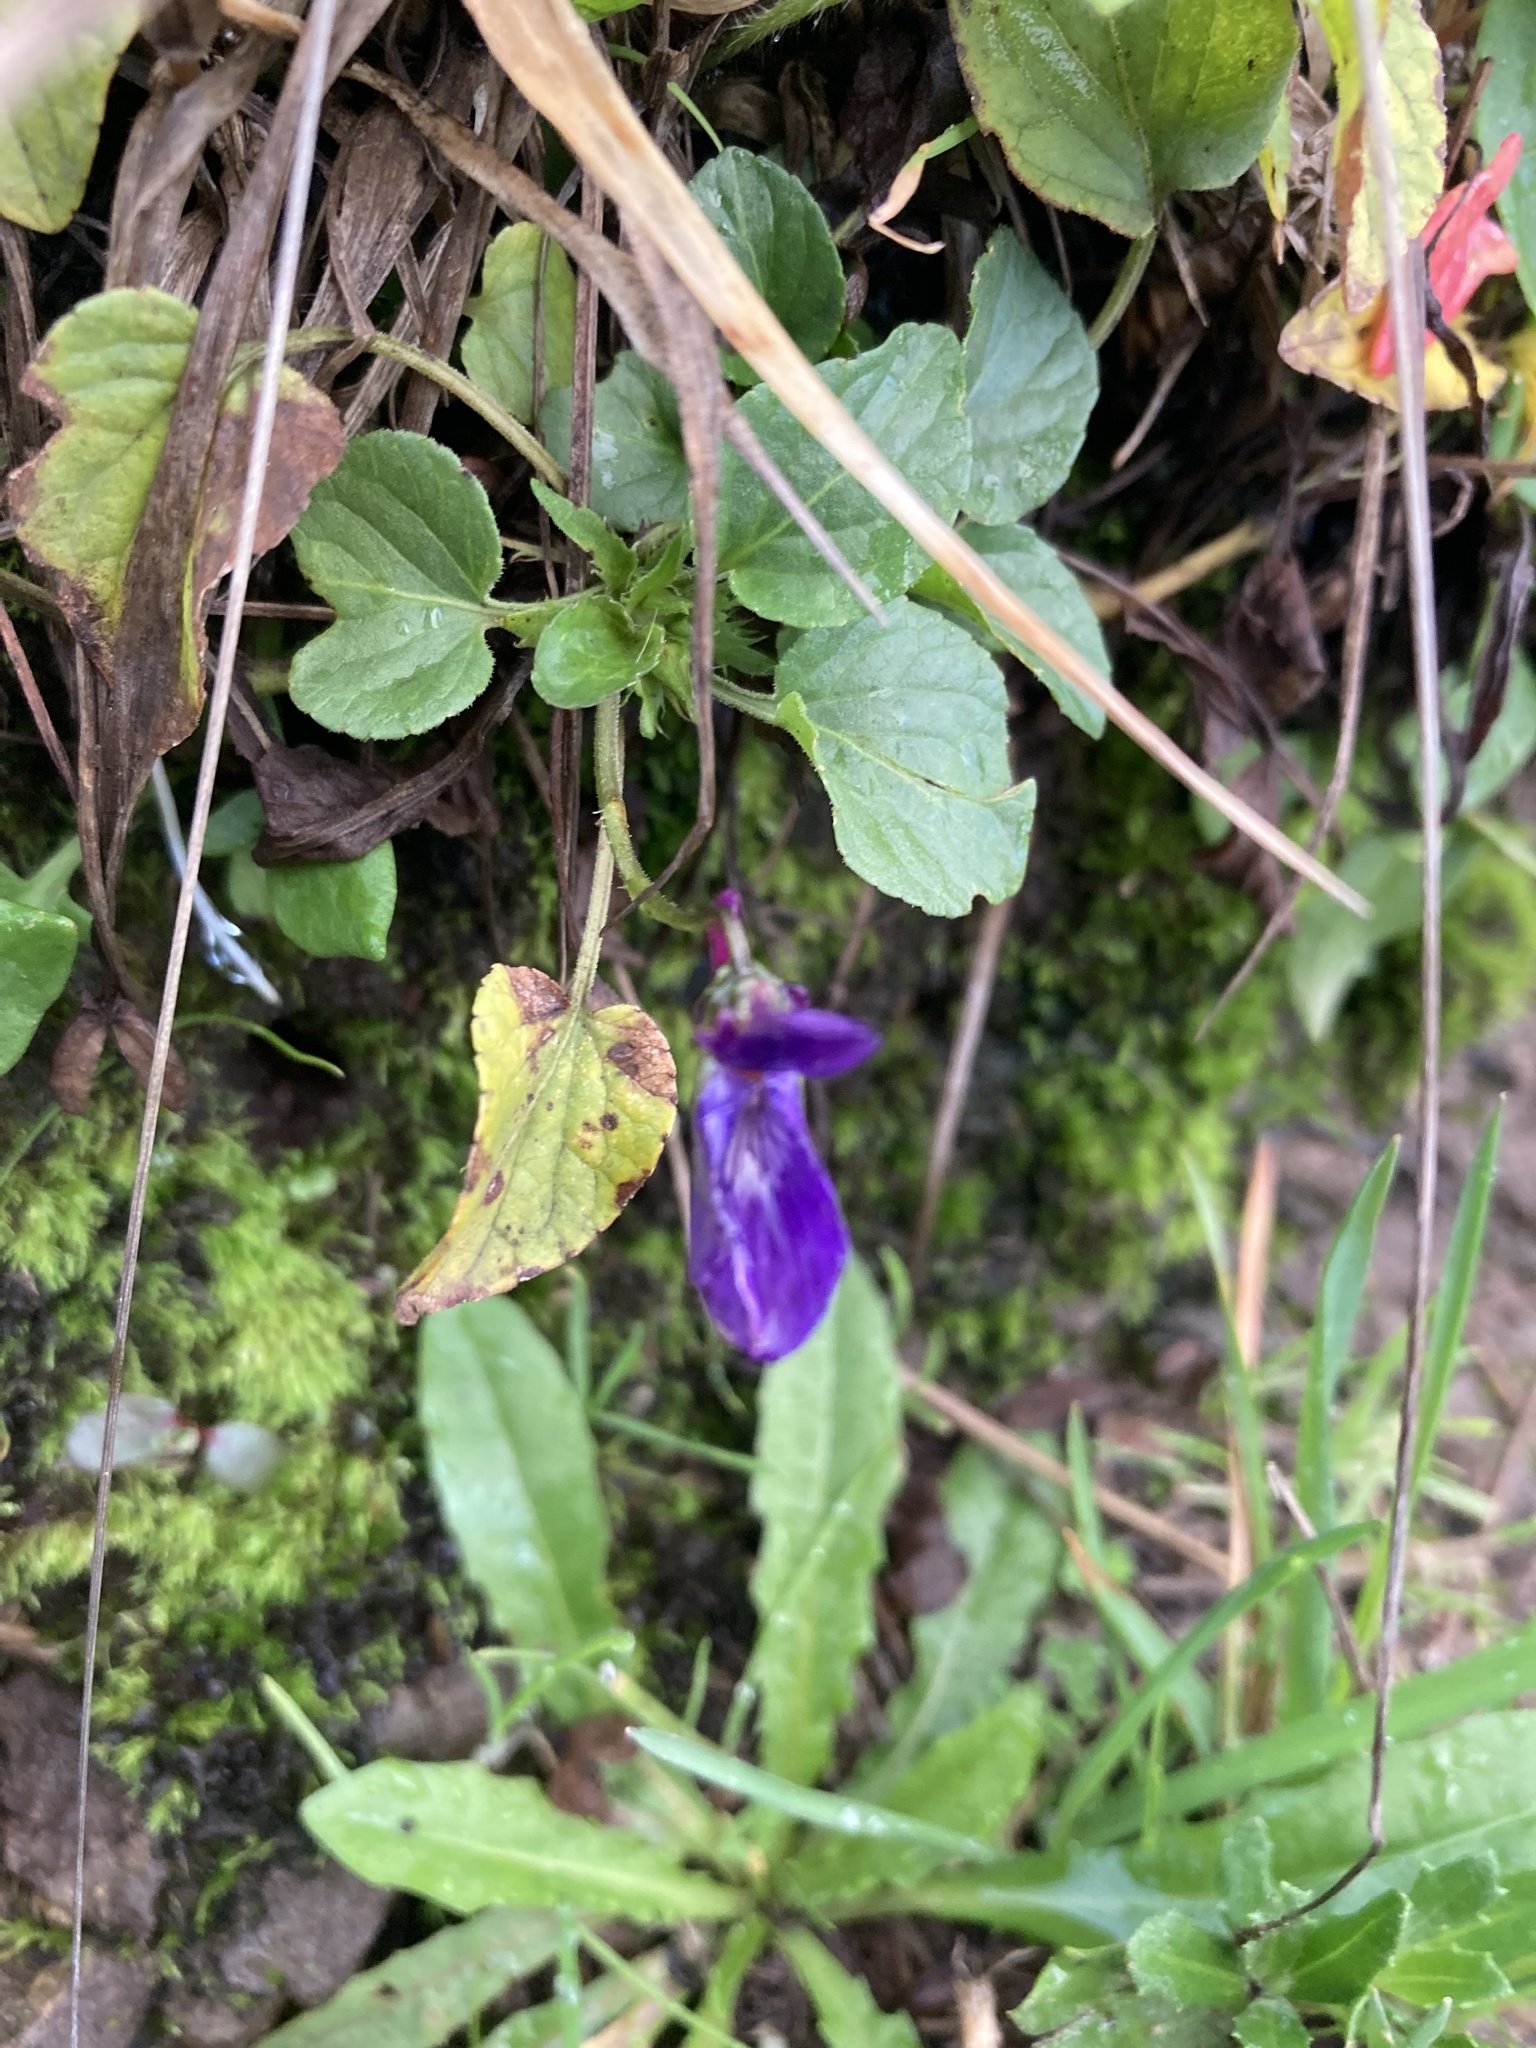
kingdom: Plantae
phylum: Tracheophyta
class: Magnoliopsida
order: Malpighiales
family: Violaceae
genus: Viola
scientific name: Viola adunca
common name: Sand violet
